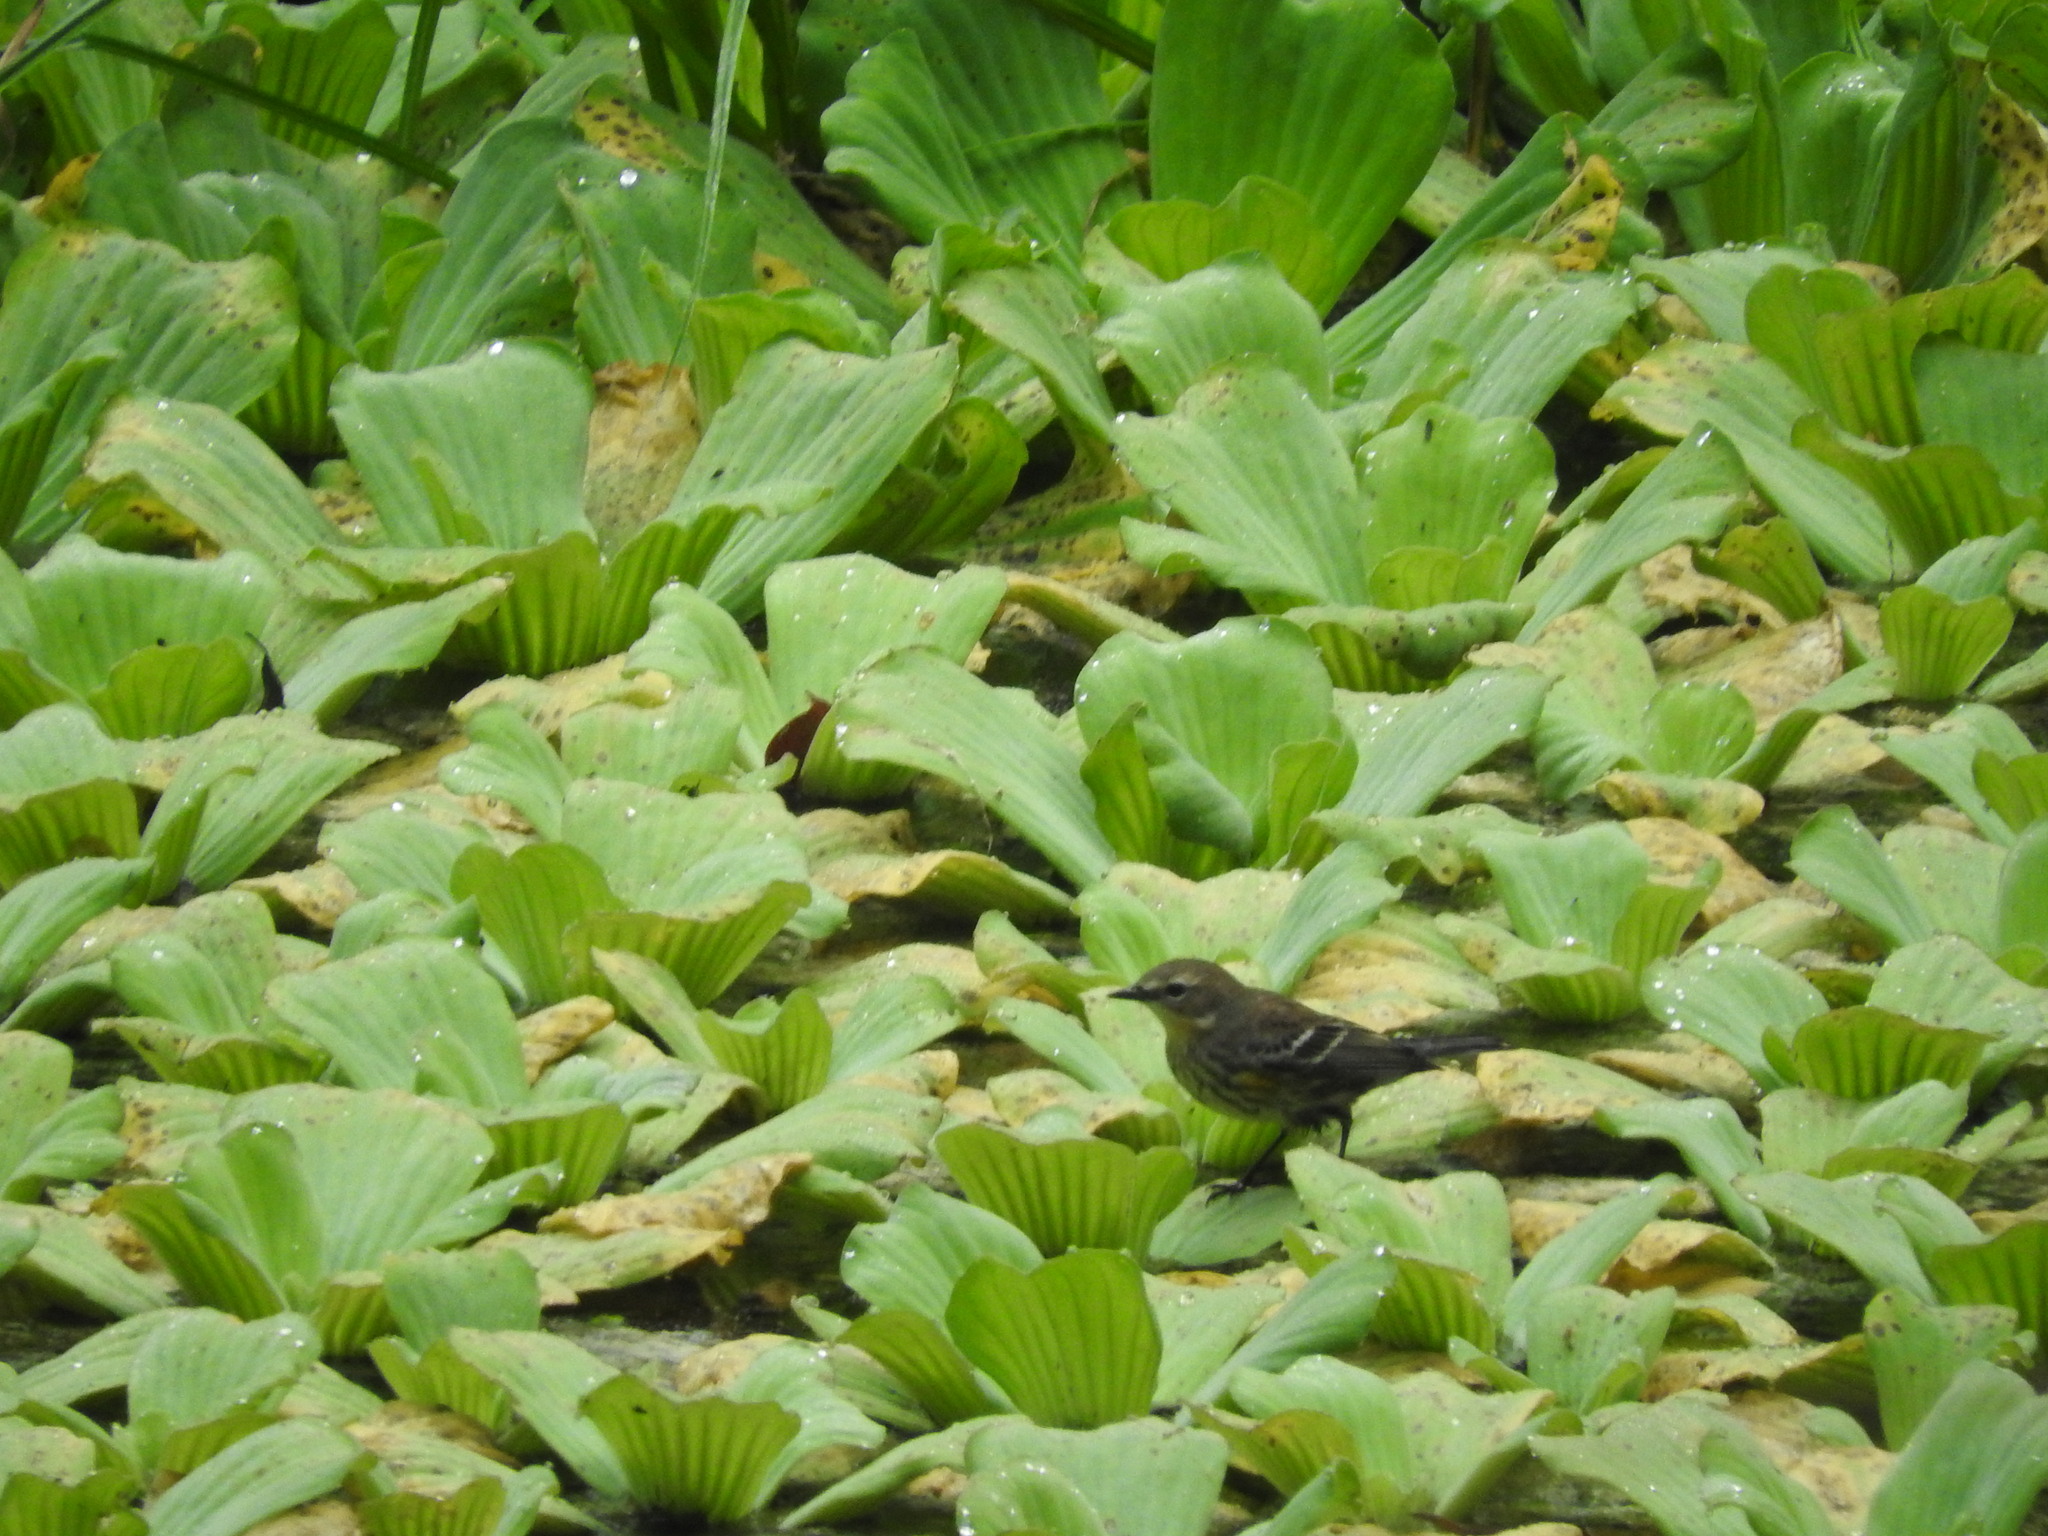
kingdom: Animalia
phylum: Chordata
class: Aves
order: Passeriformes
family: Parulidae
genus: Setophaga
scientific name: Setophaga coronata
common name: Myrtle warbler
